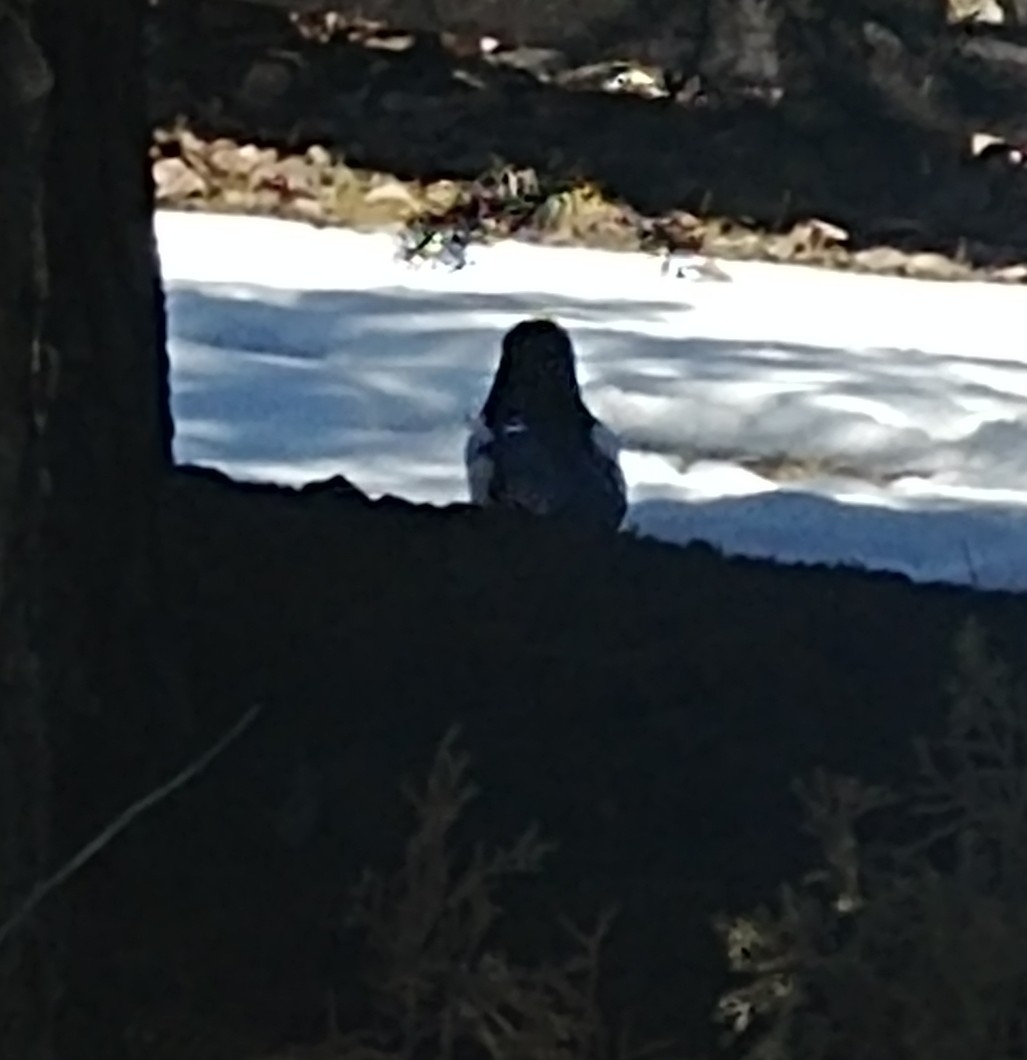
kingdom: Animalia
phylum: Chordata
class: Aves
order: Passeriformes
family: Corvidae
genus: Pica
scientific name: Pica hudsonia
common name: Black-billed magpie
